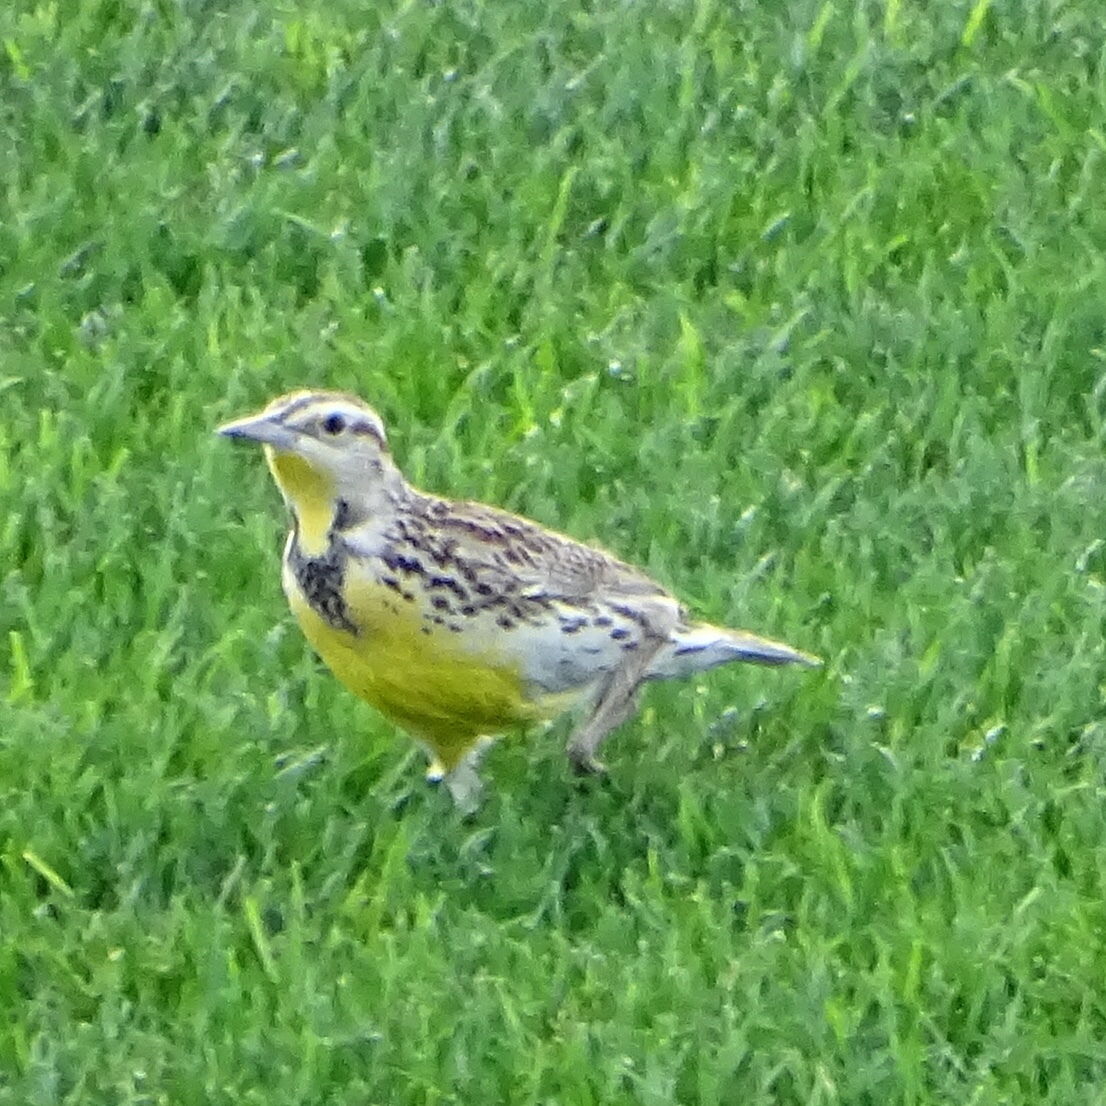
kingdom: Animalia
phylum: Chordata
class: Aves
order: Passeriformes
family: Icteridae
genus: Sturnella
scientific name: Sturnella neglecta
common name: Western meadowlark
